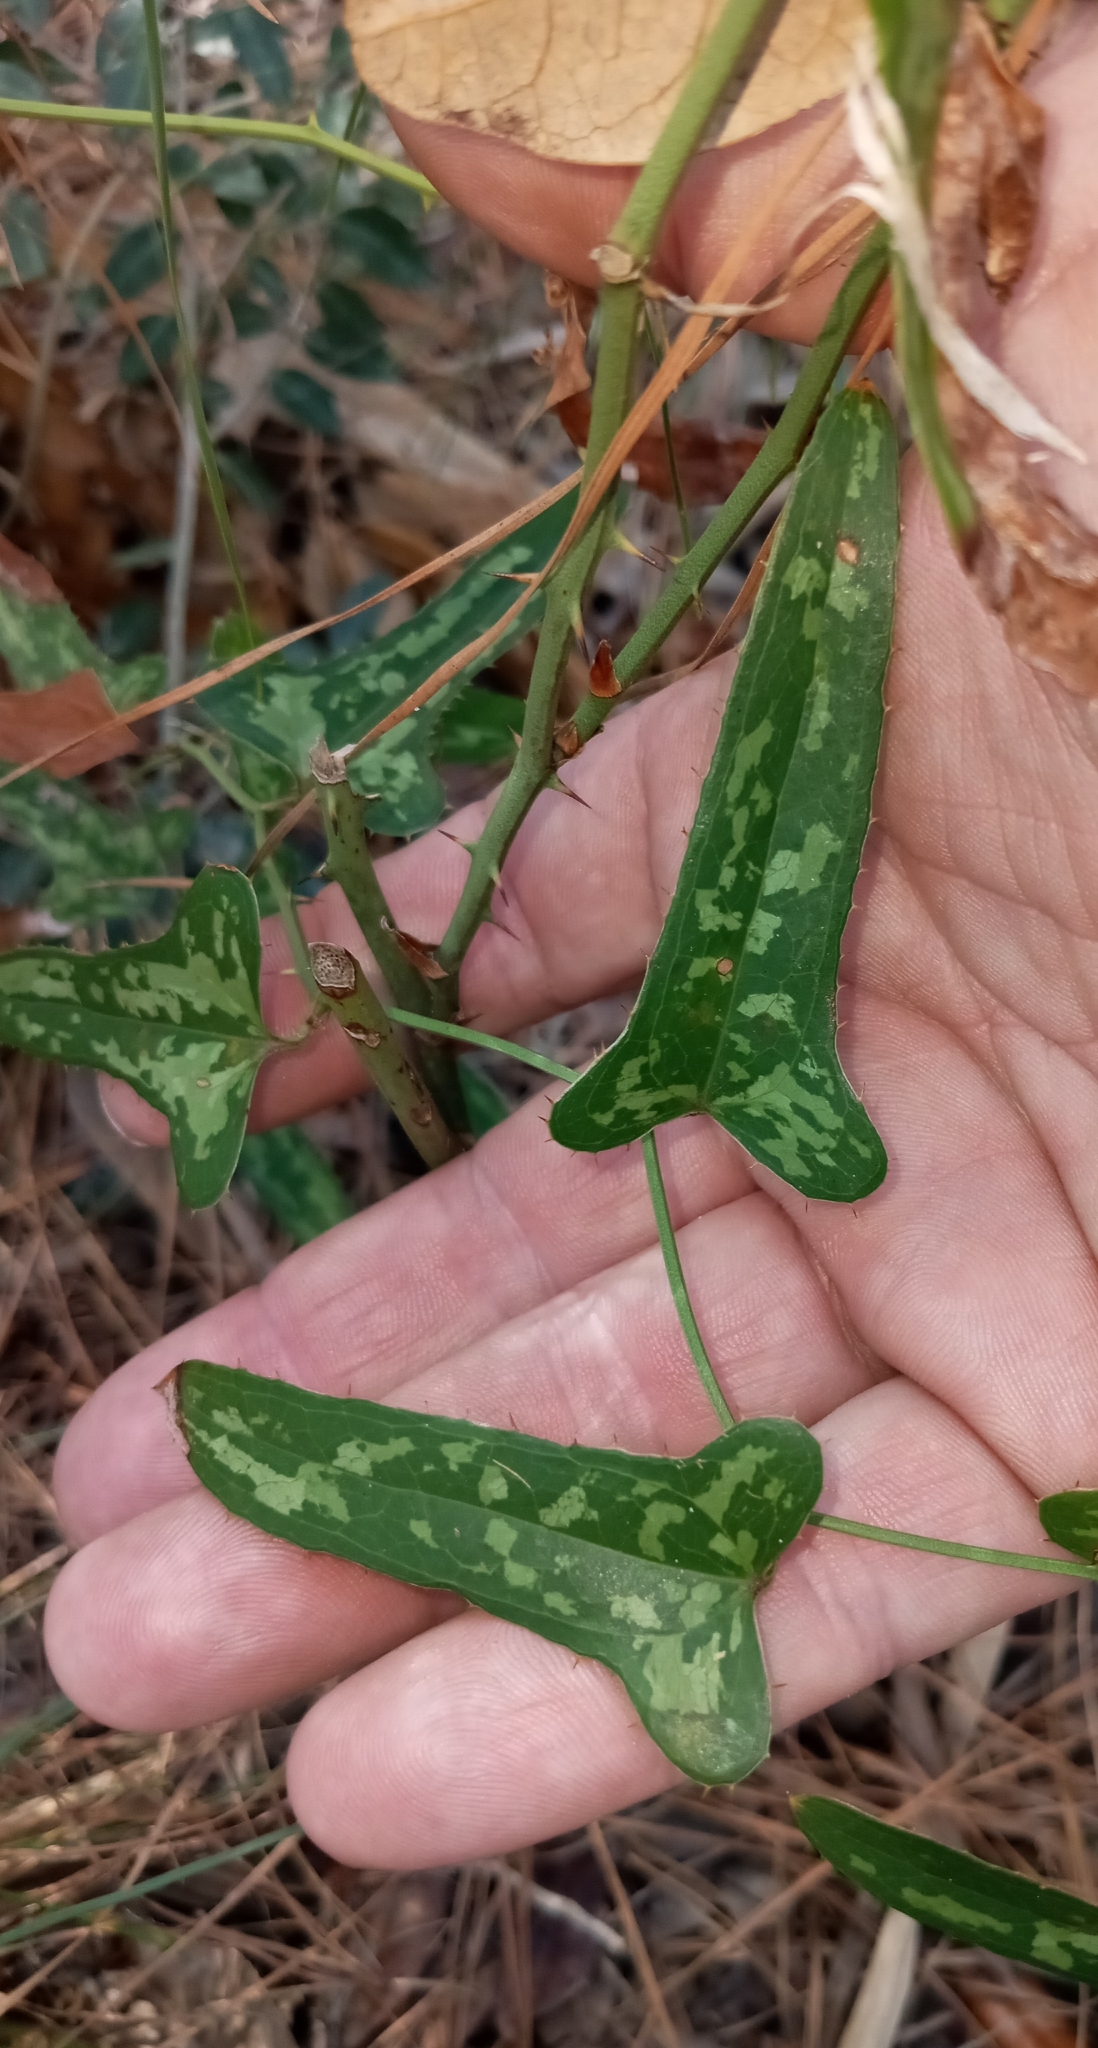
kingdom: Plantae
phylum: Tracheophyta
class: Liliopsida
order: Liliales
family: Smilacaceae
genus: Smilax
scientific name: Smilax bona-nox
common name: Catbrier
